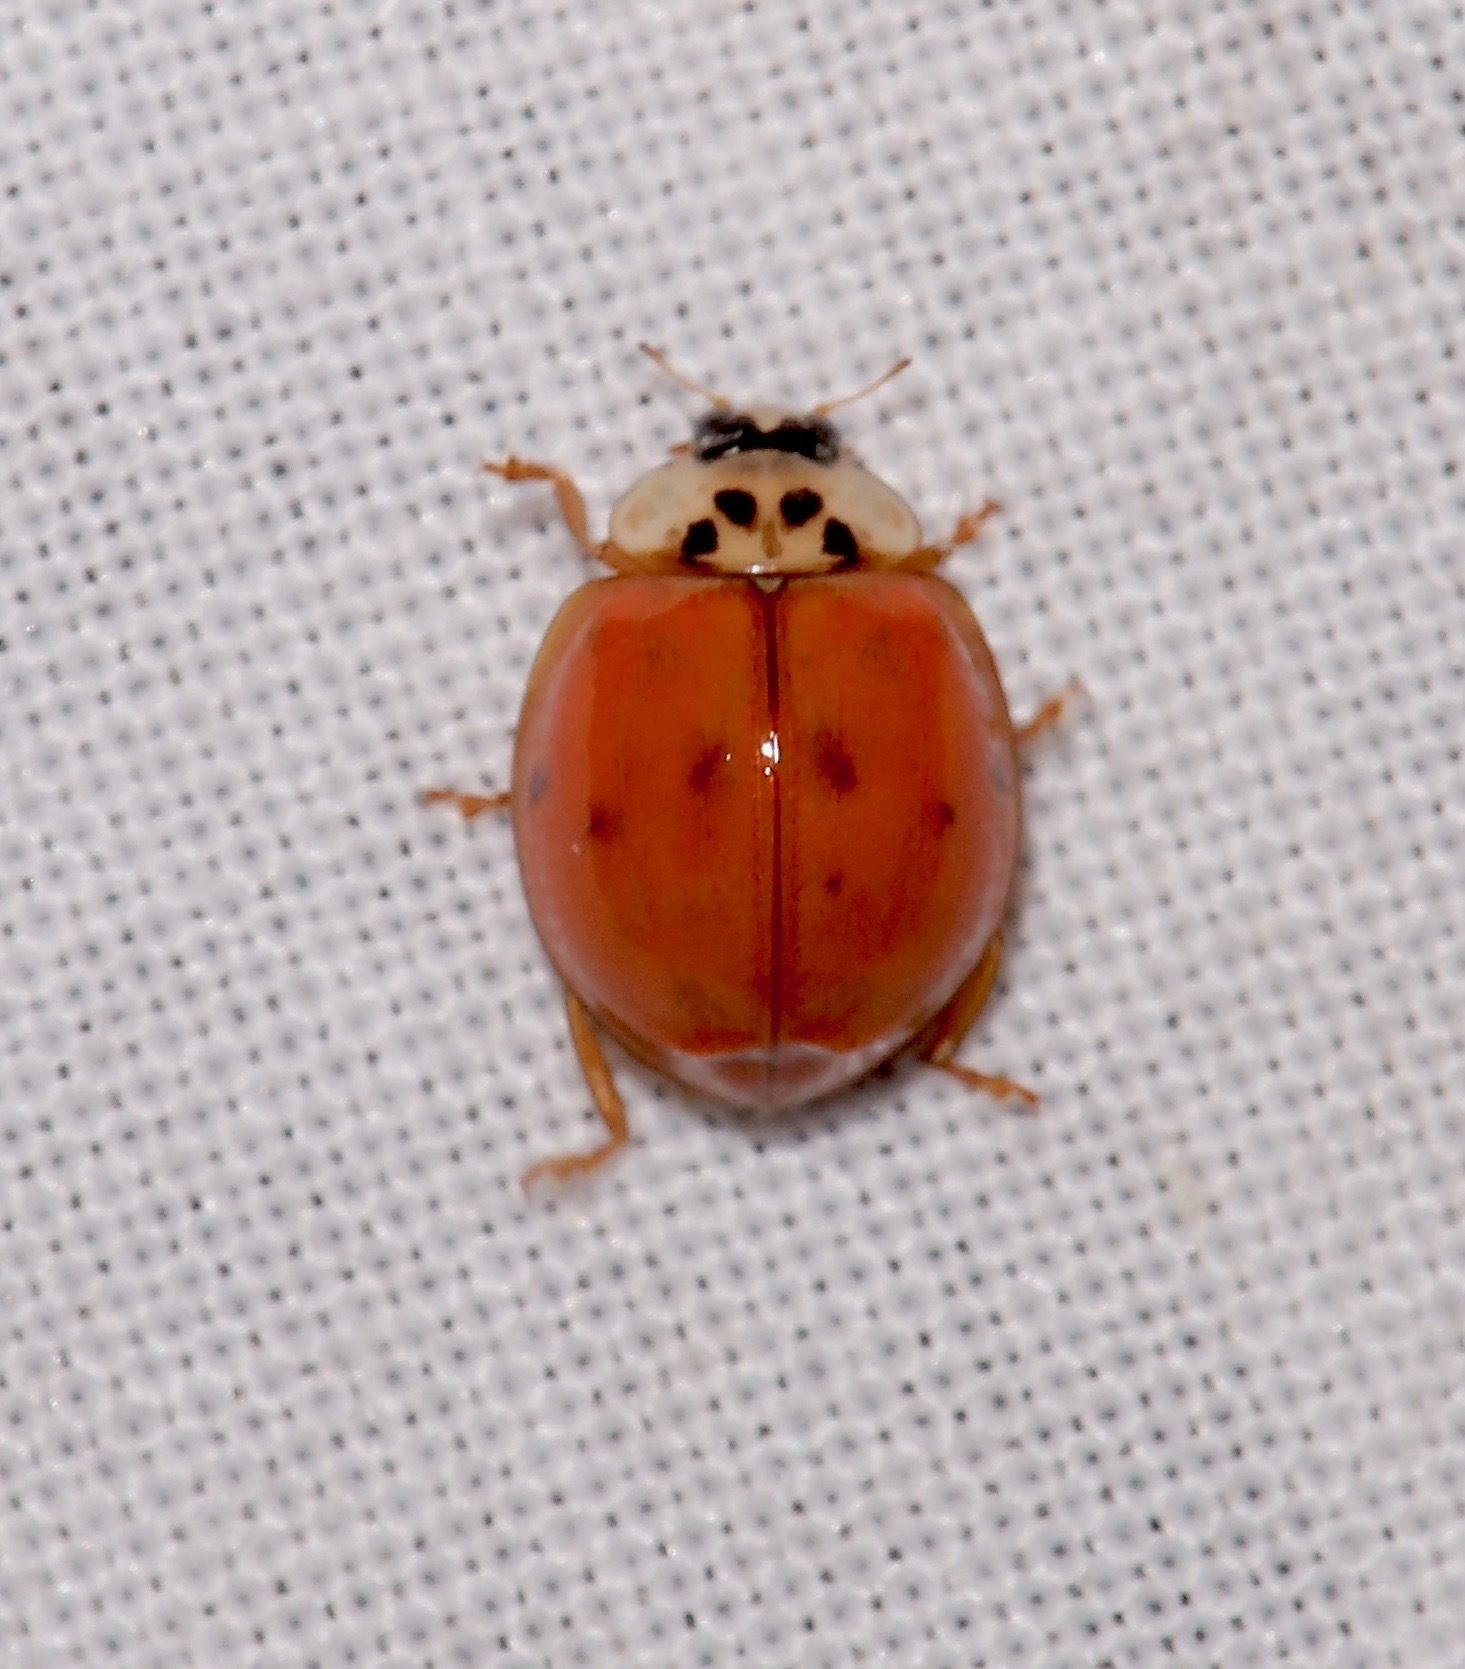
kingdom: Animalia
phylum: Arthropoda
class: Insecta
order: Coleoptera
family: Coccinellidae
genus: Harmonia
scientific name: Harmonia axyridis
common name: Harlequin ladybird
